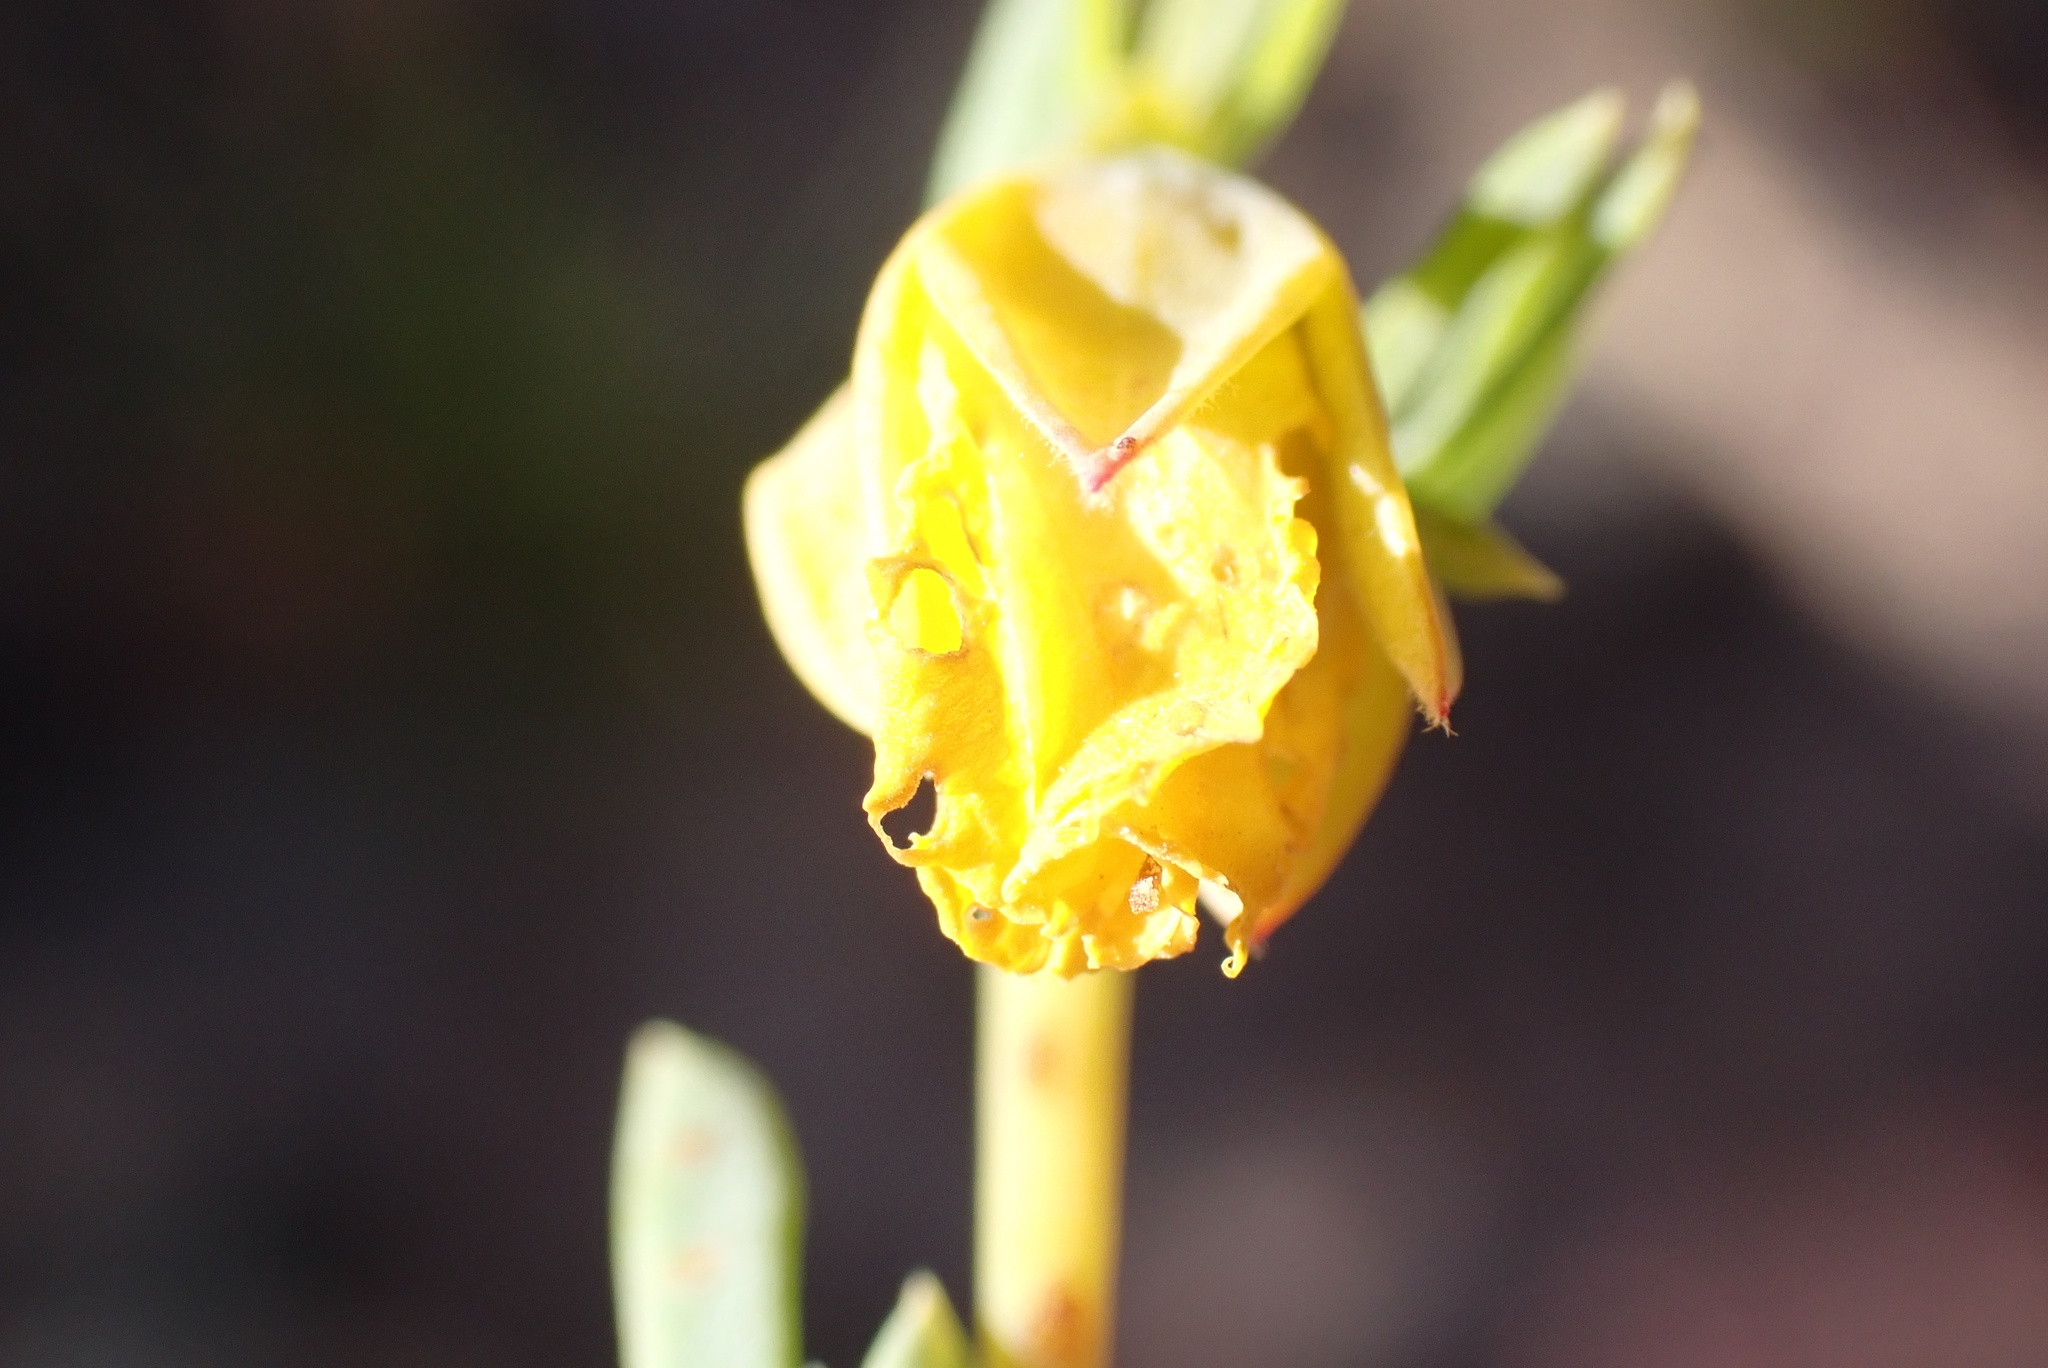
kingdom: Plantae
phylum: Tracheophyta
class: Magnoliopsida
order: Malvales
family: Malvaceae
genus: Hermannia
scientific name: Hermannia
